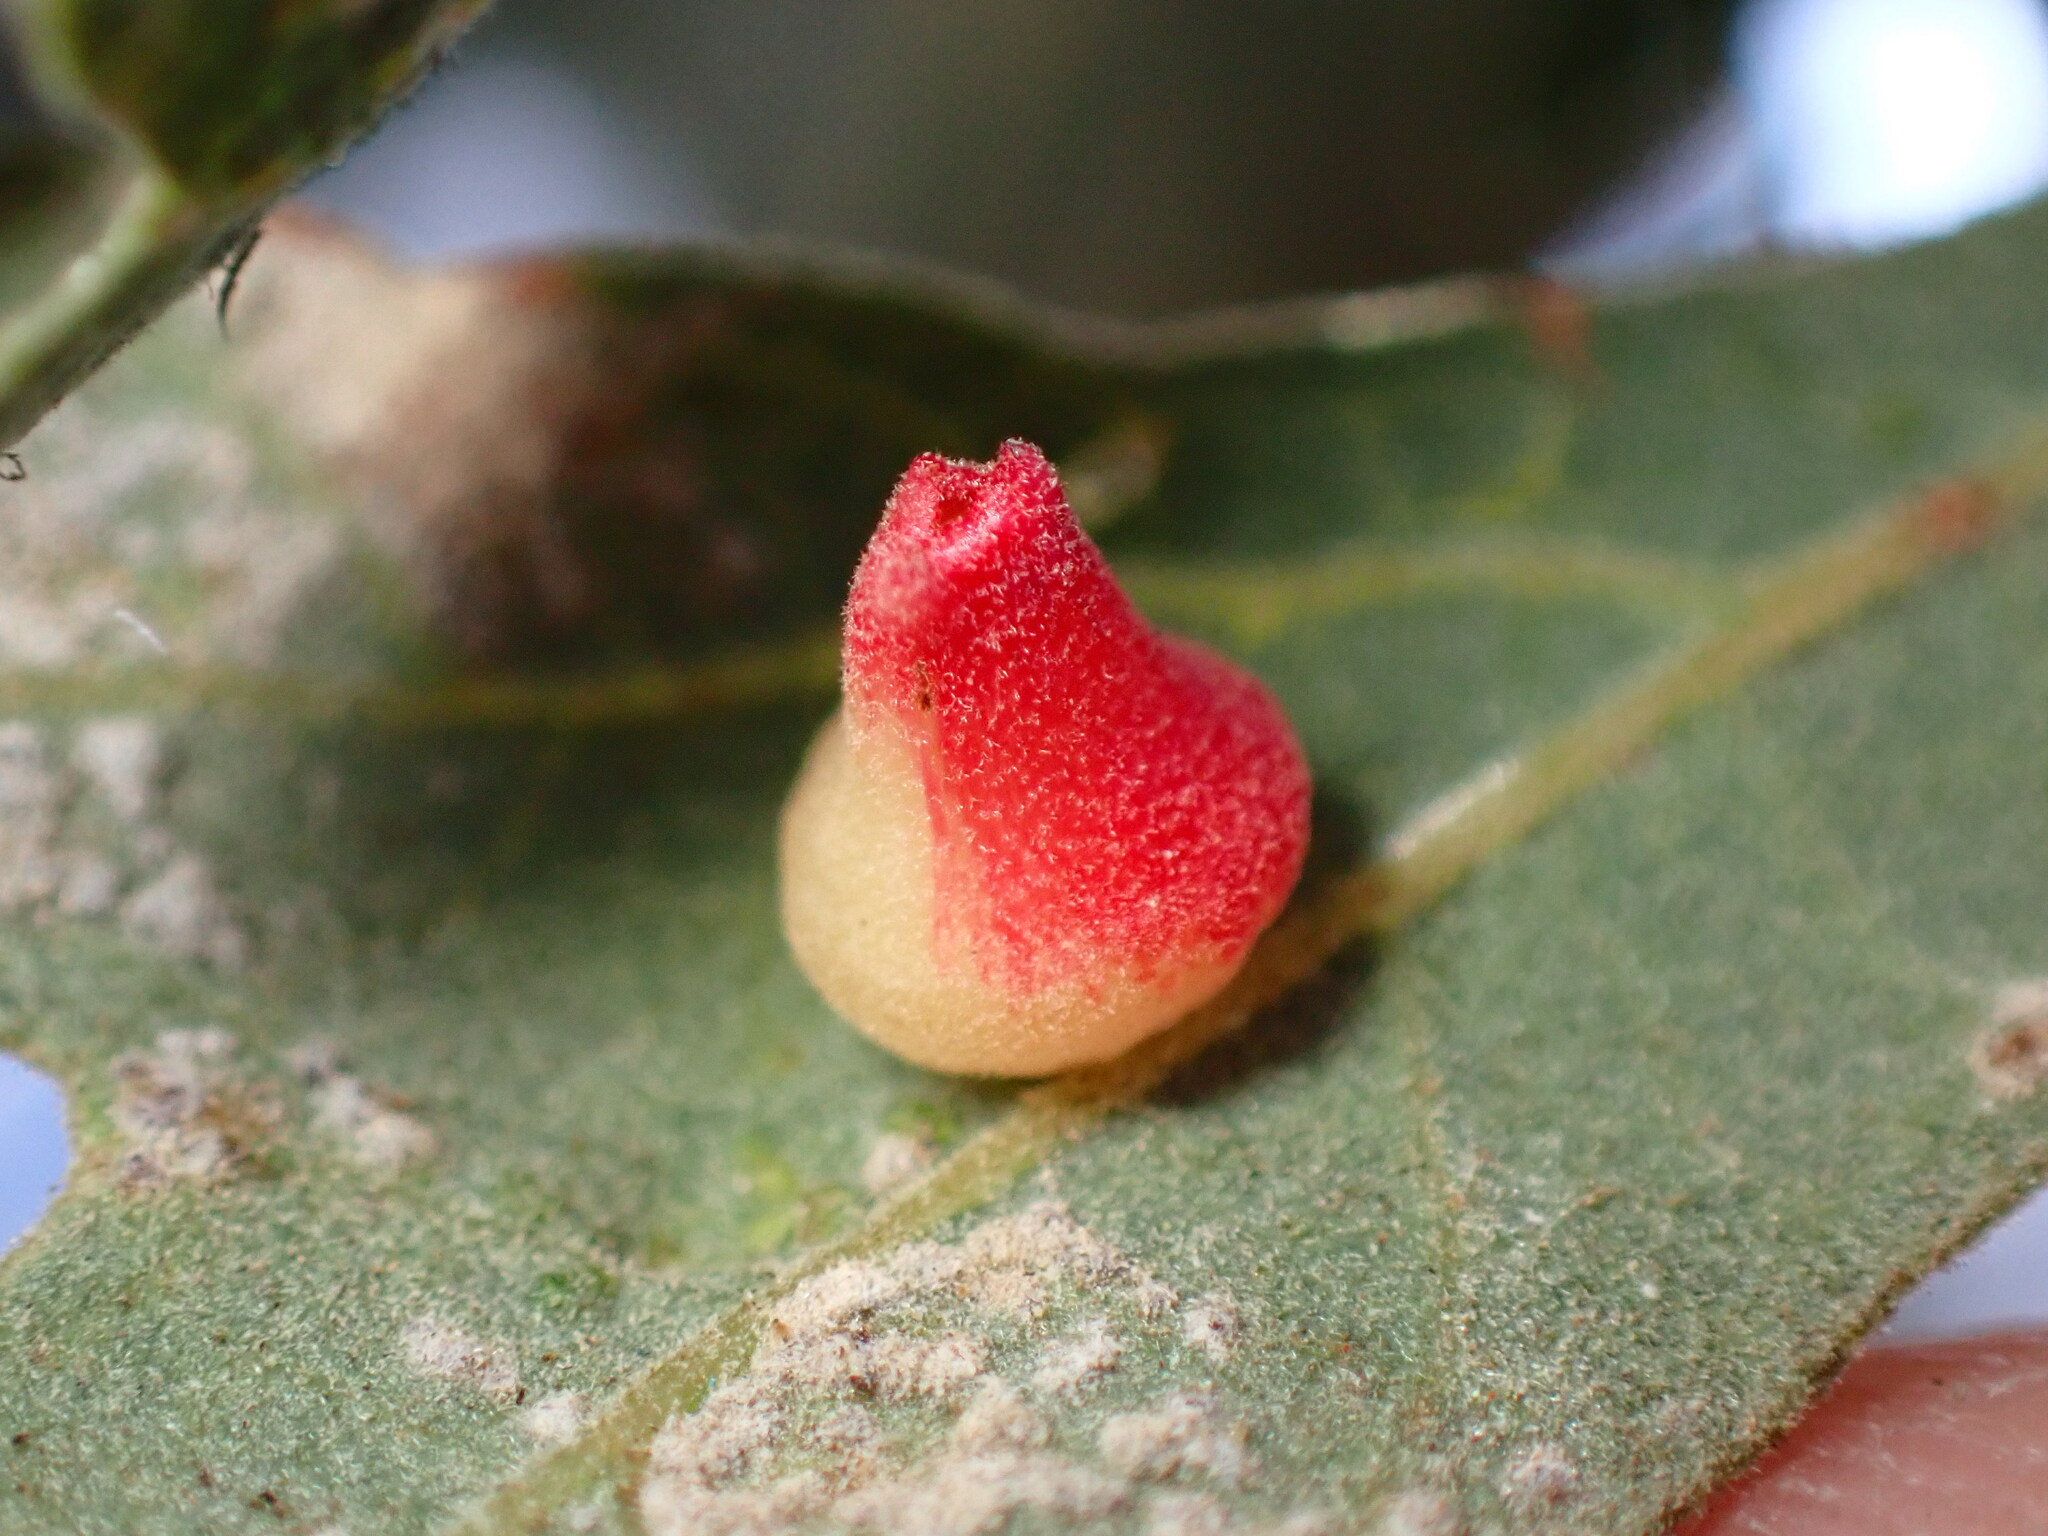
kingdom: Animalia
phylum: Arthropoda
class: Insecta
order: Hymenoptera
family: Cynipidae
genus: Andricus
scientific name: Andricus
